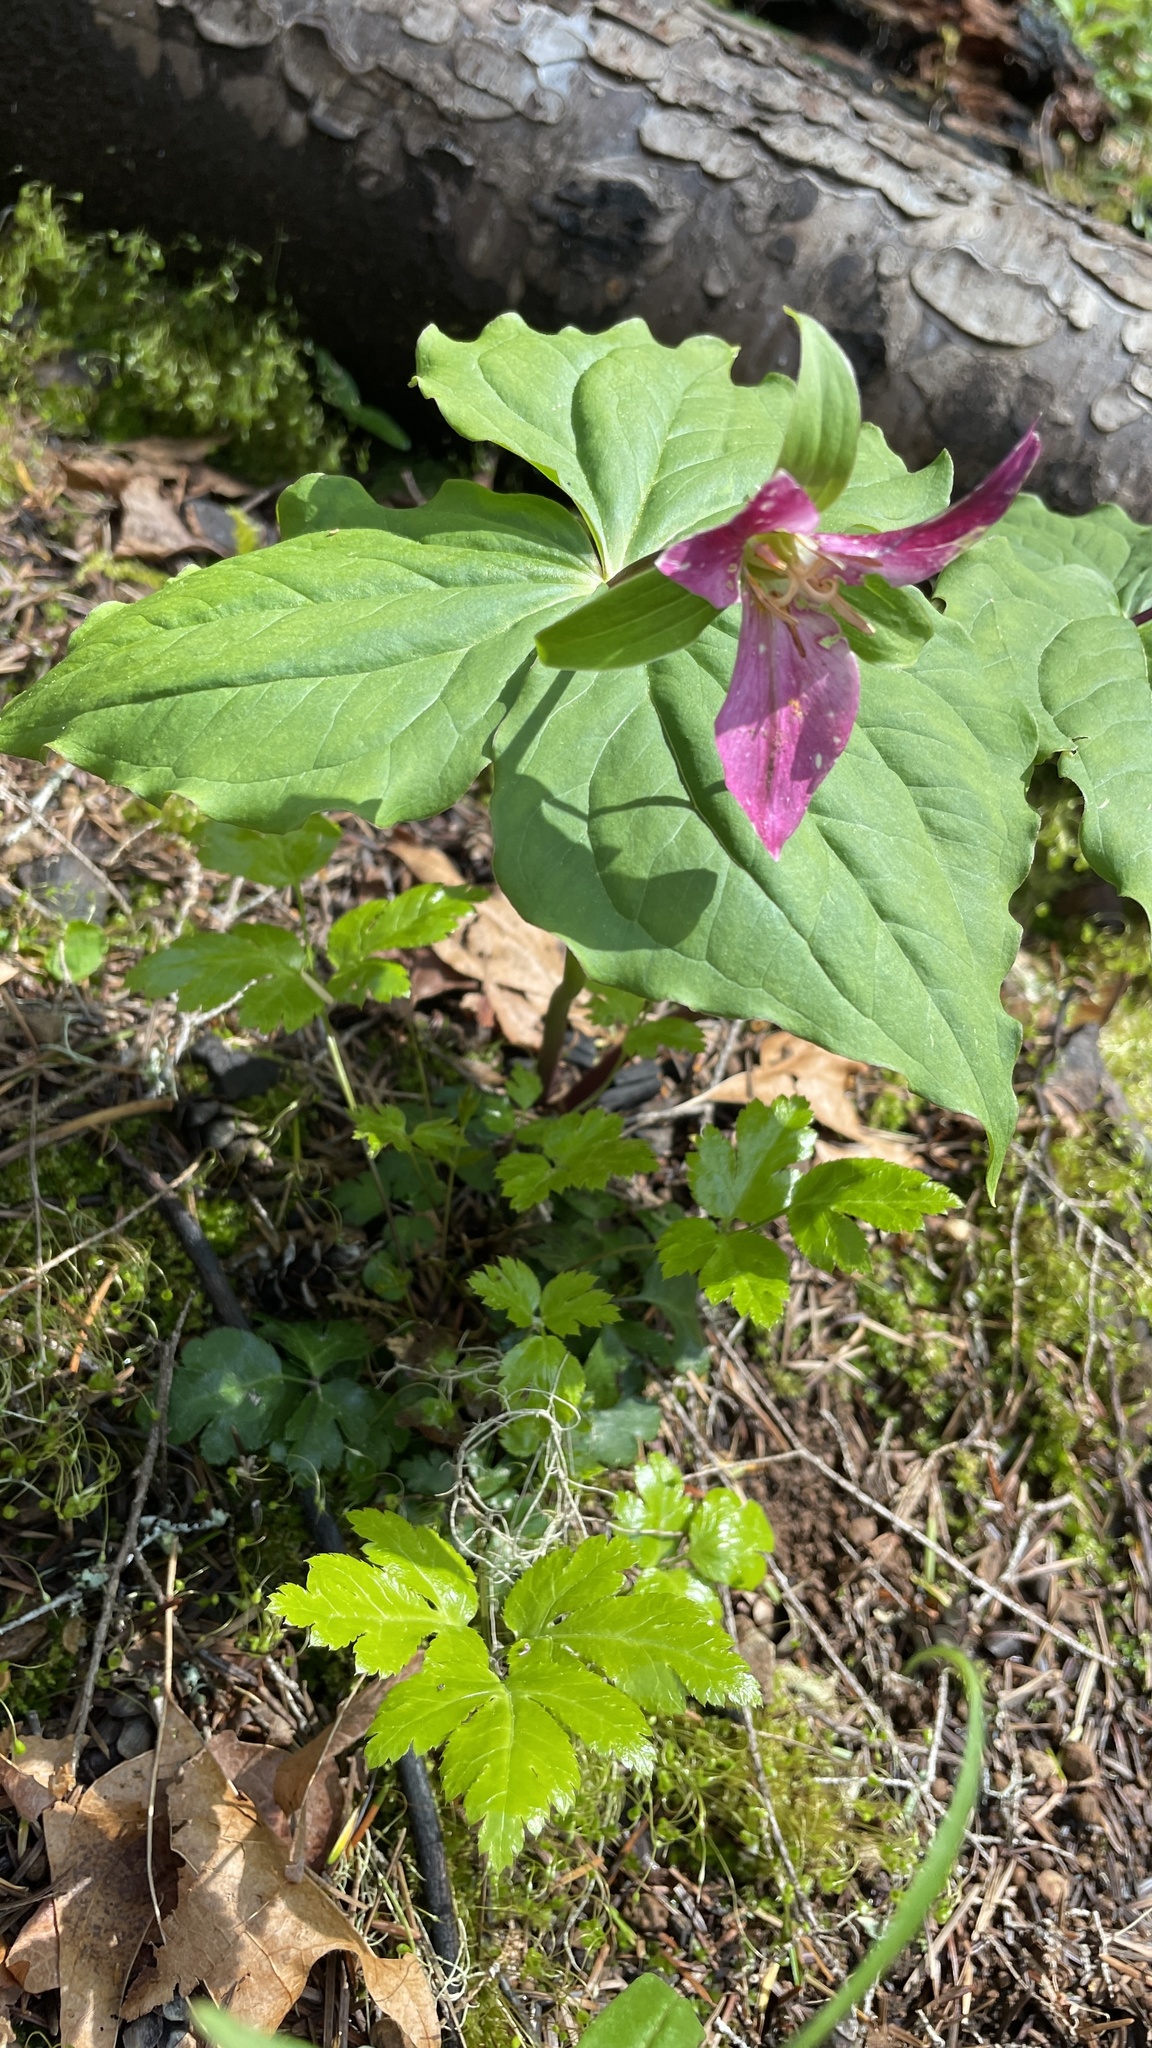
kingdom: Plantae
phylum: Tracheophyta
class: Liliopsida
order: Liliales
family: Melanthiaceae
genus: Trillium
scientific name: Trillium ovatum
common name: Pacific trillium
